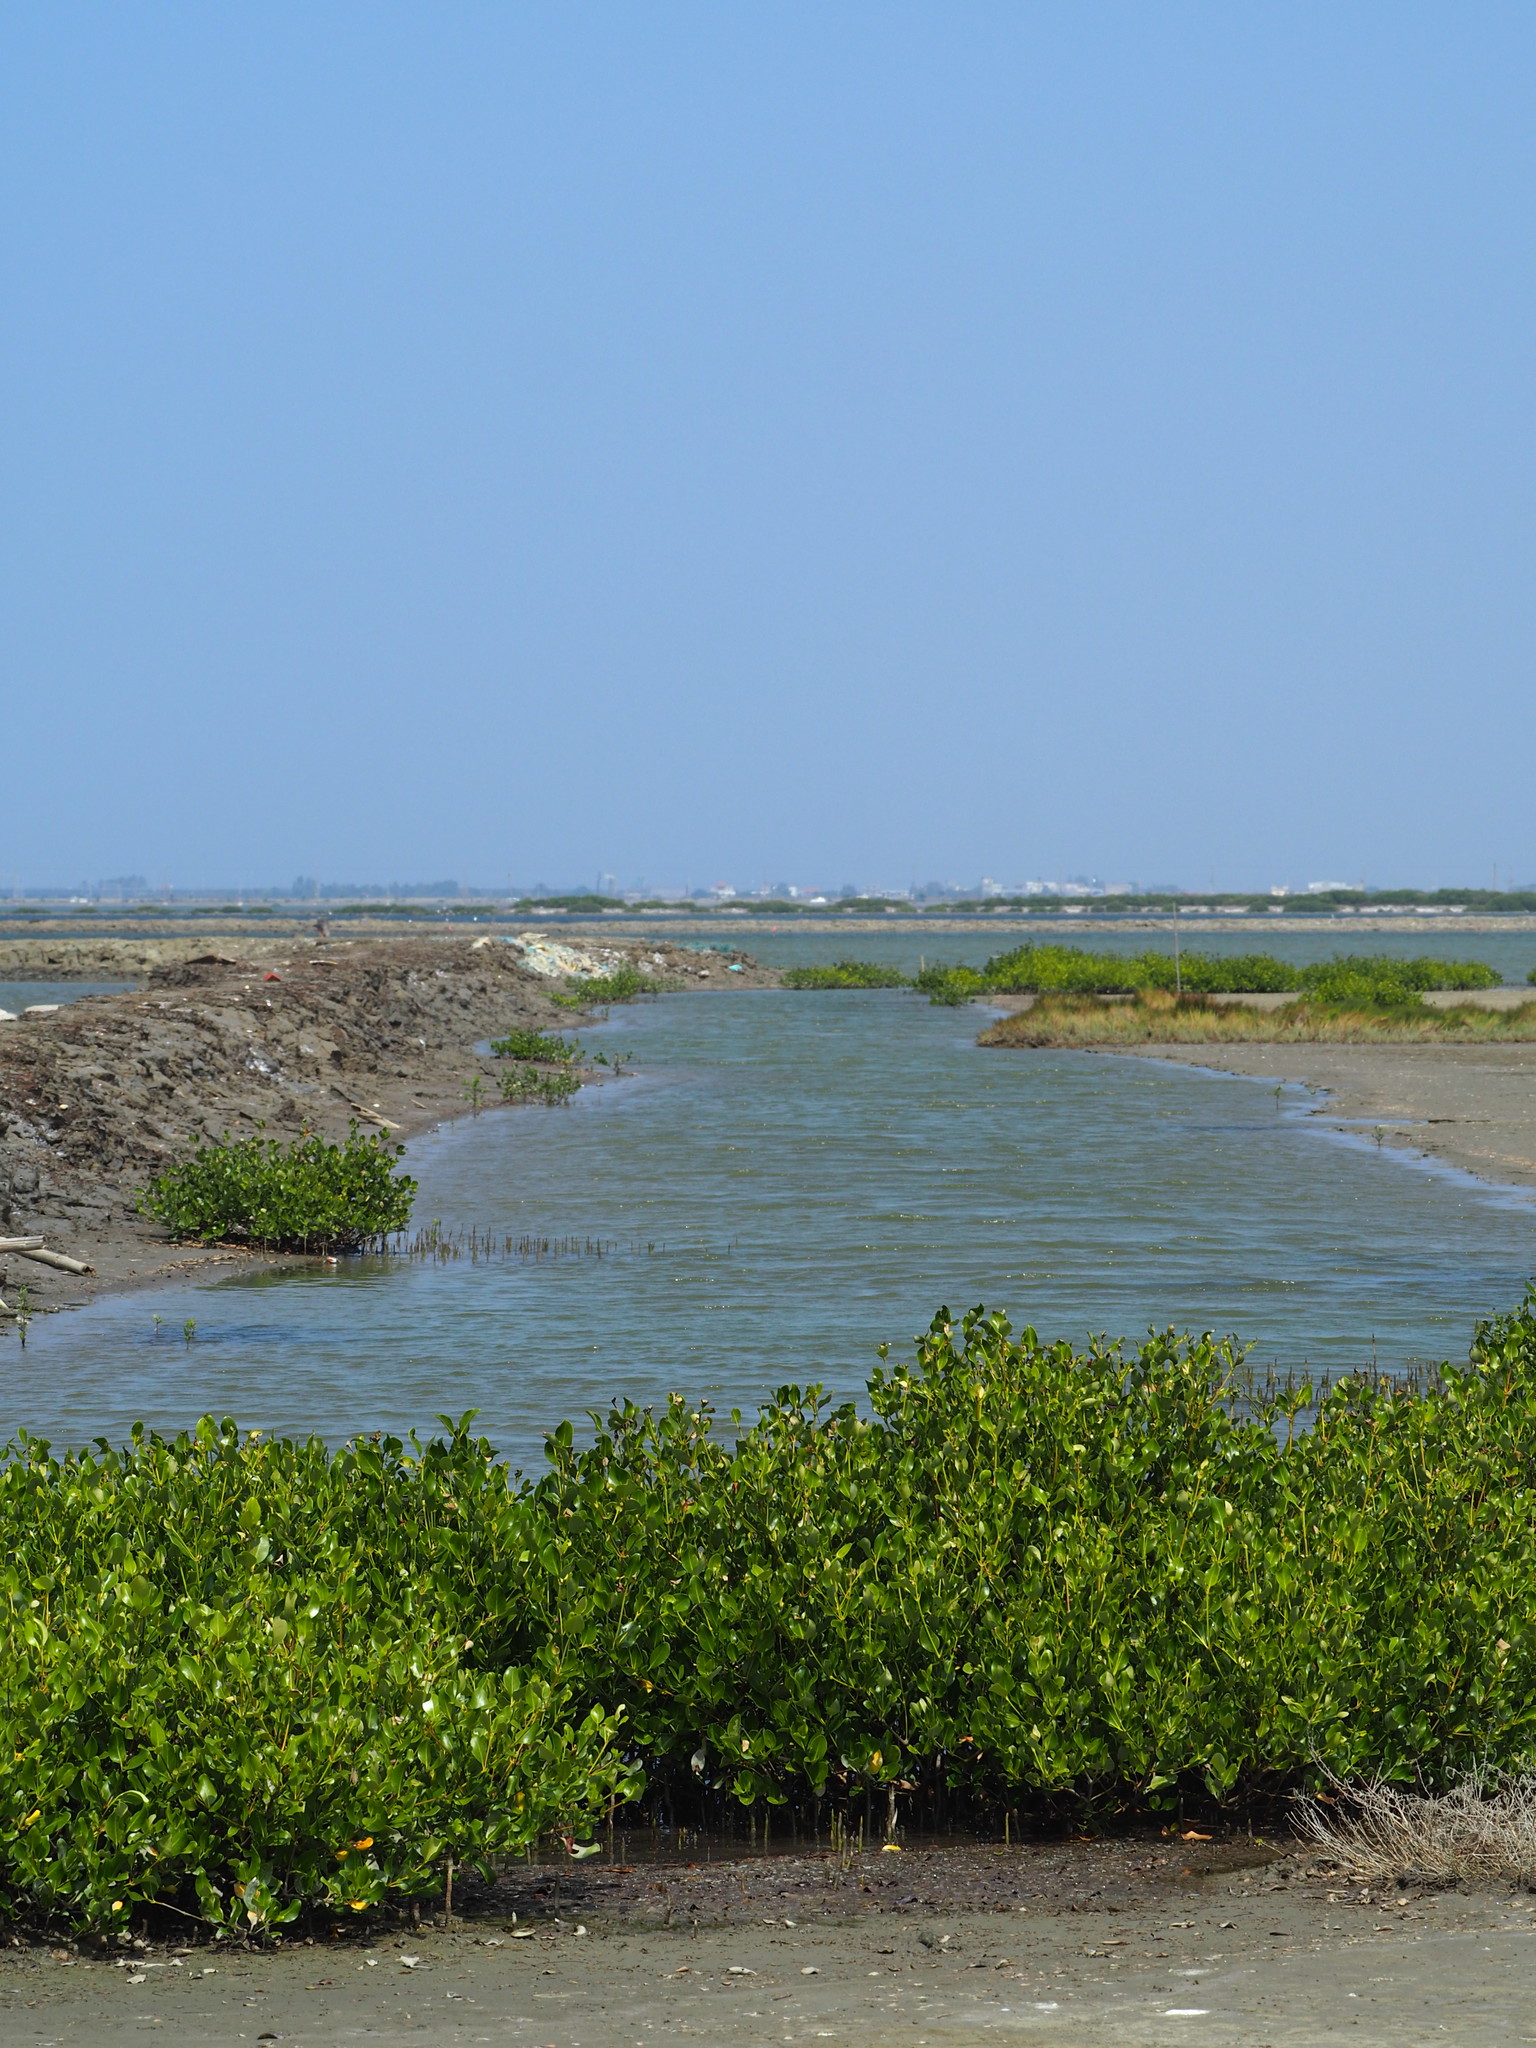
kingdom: Plantae
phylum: Tracheophyta
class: Magnoliopsida
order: Lamiales
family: Acanthaceae
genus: Avicennia
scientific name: Avicennia marina
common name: Gray mangrove
